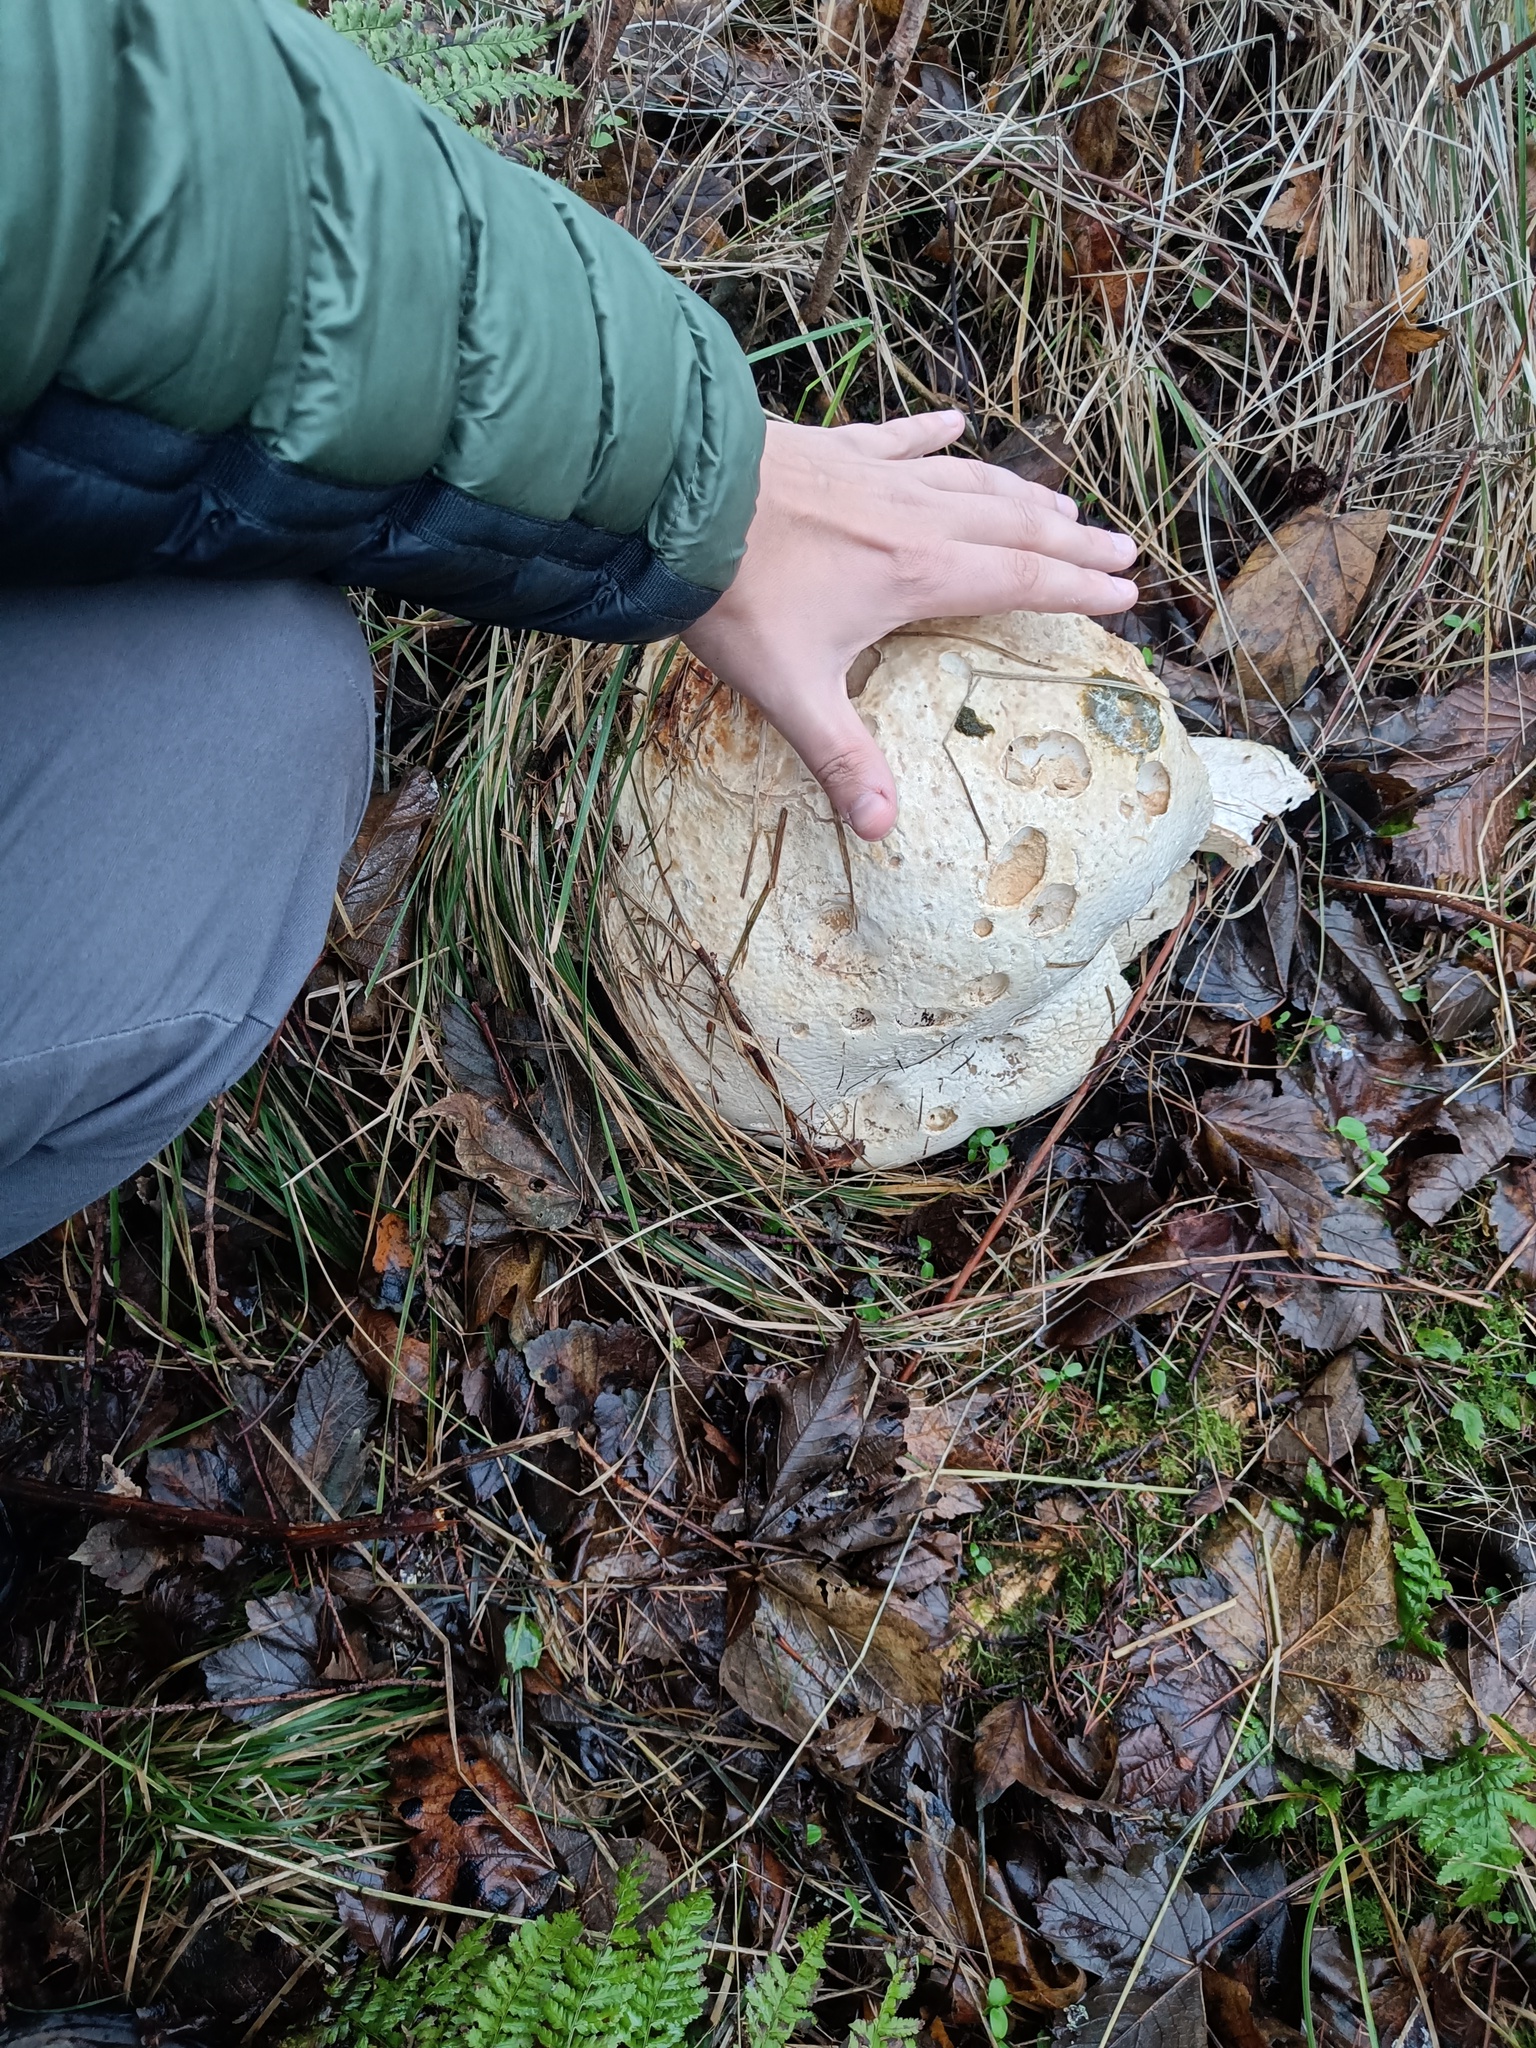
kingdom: Fungi
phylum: Basidiomycota
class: Agaricomycetes
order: Agaricales
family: Lycoperdaceae
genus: Calvatia
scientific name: Calvatia gigantea
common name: Giant puffball
